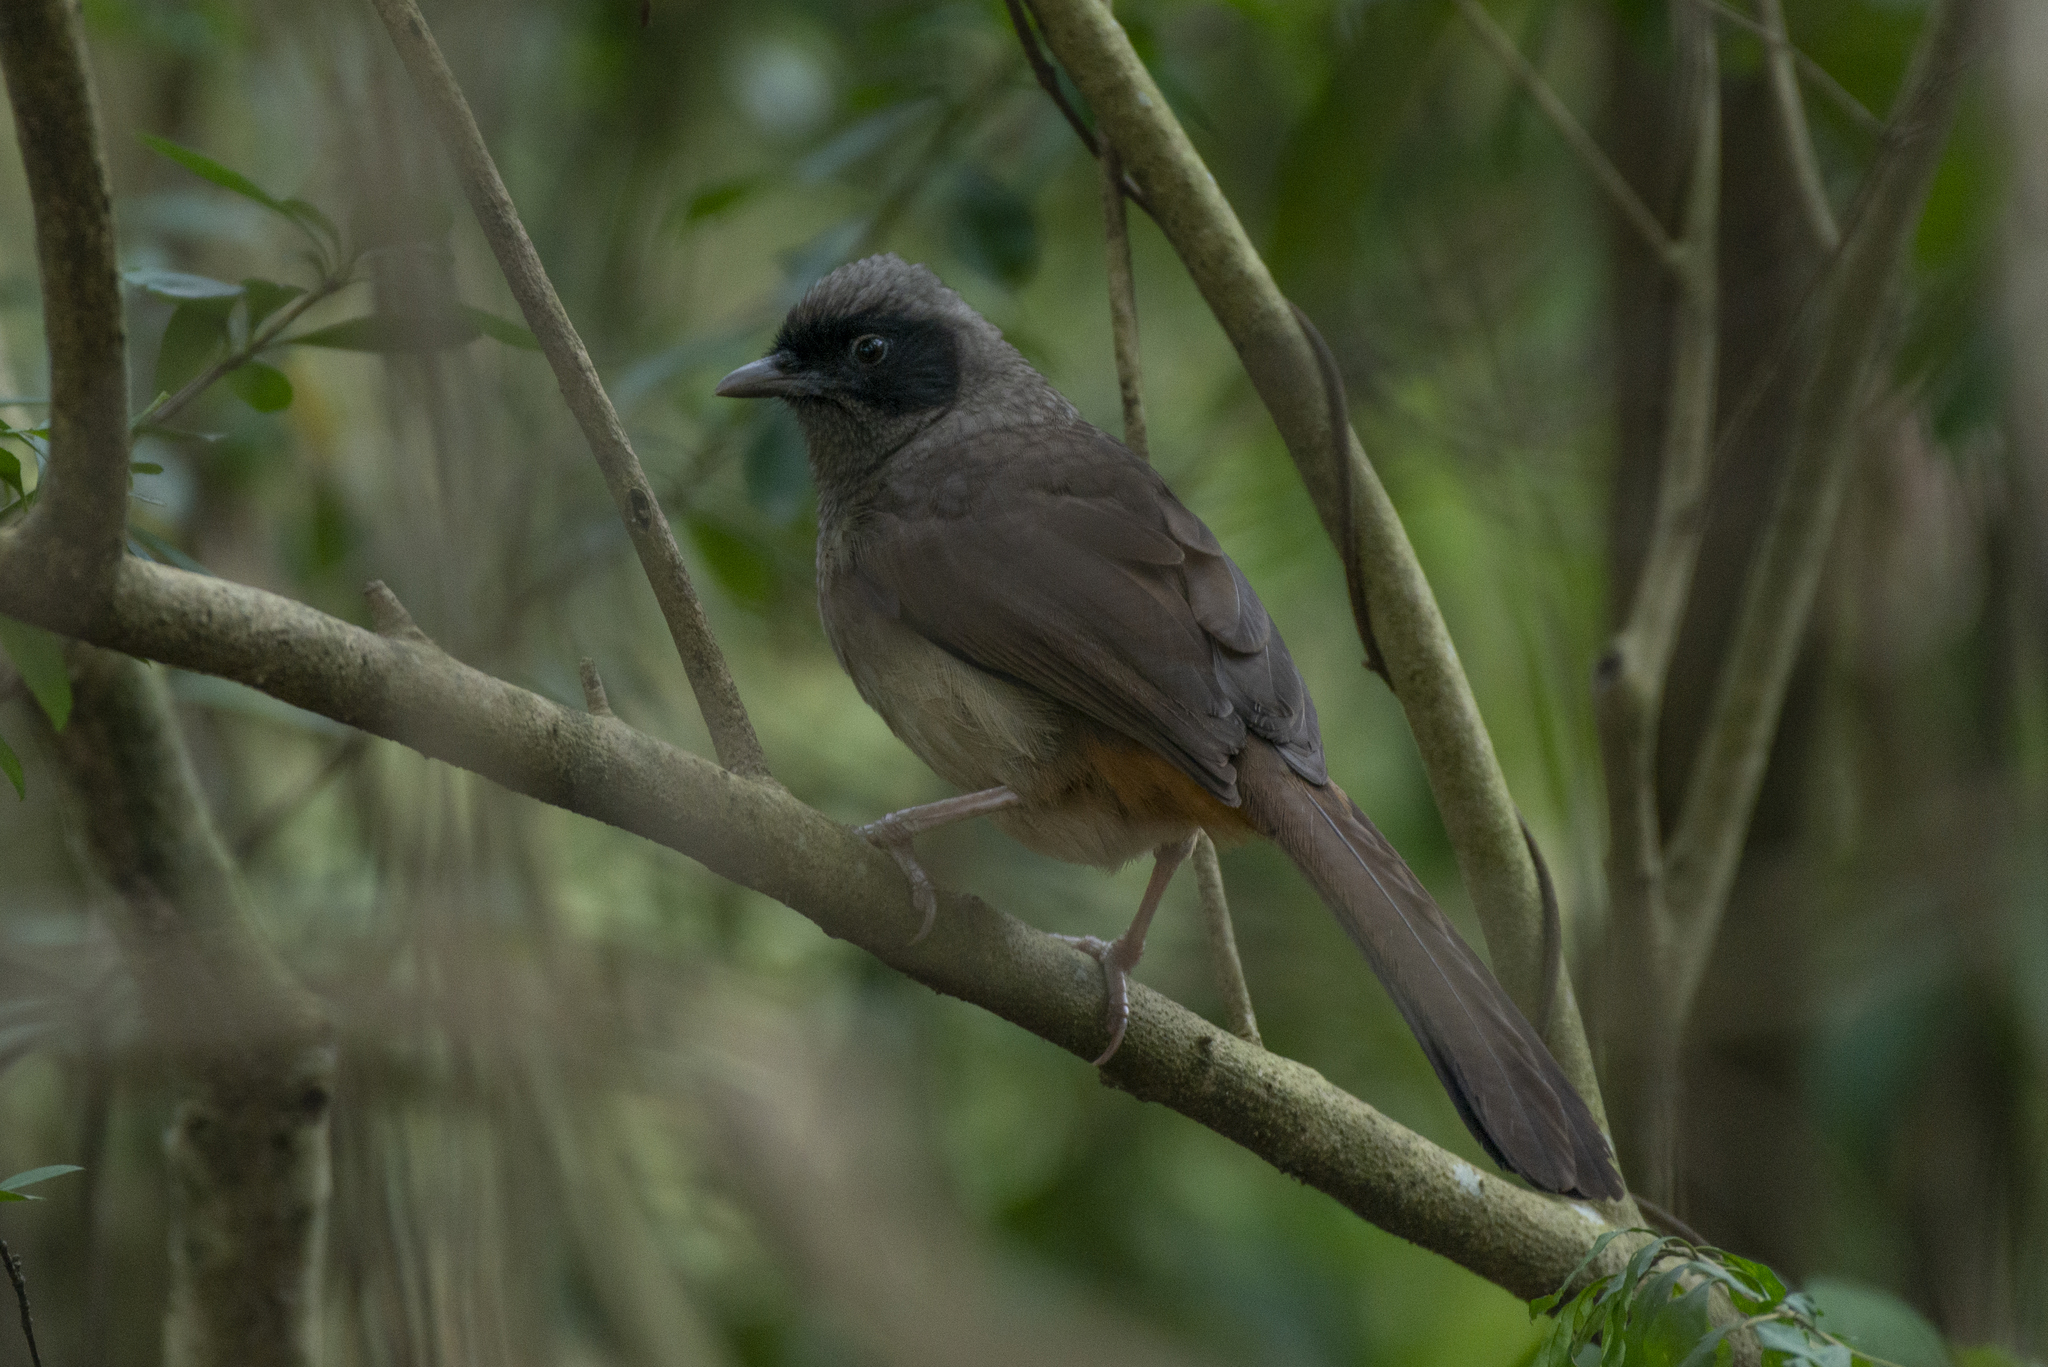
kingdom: Animalia
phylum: Chordata
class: Aves
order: Passeriformes
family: Leiothrichidae
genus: Garrulax
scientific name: Garrulax perspicillatus
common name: Masked laughingthrush
